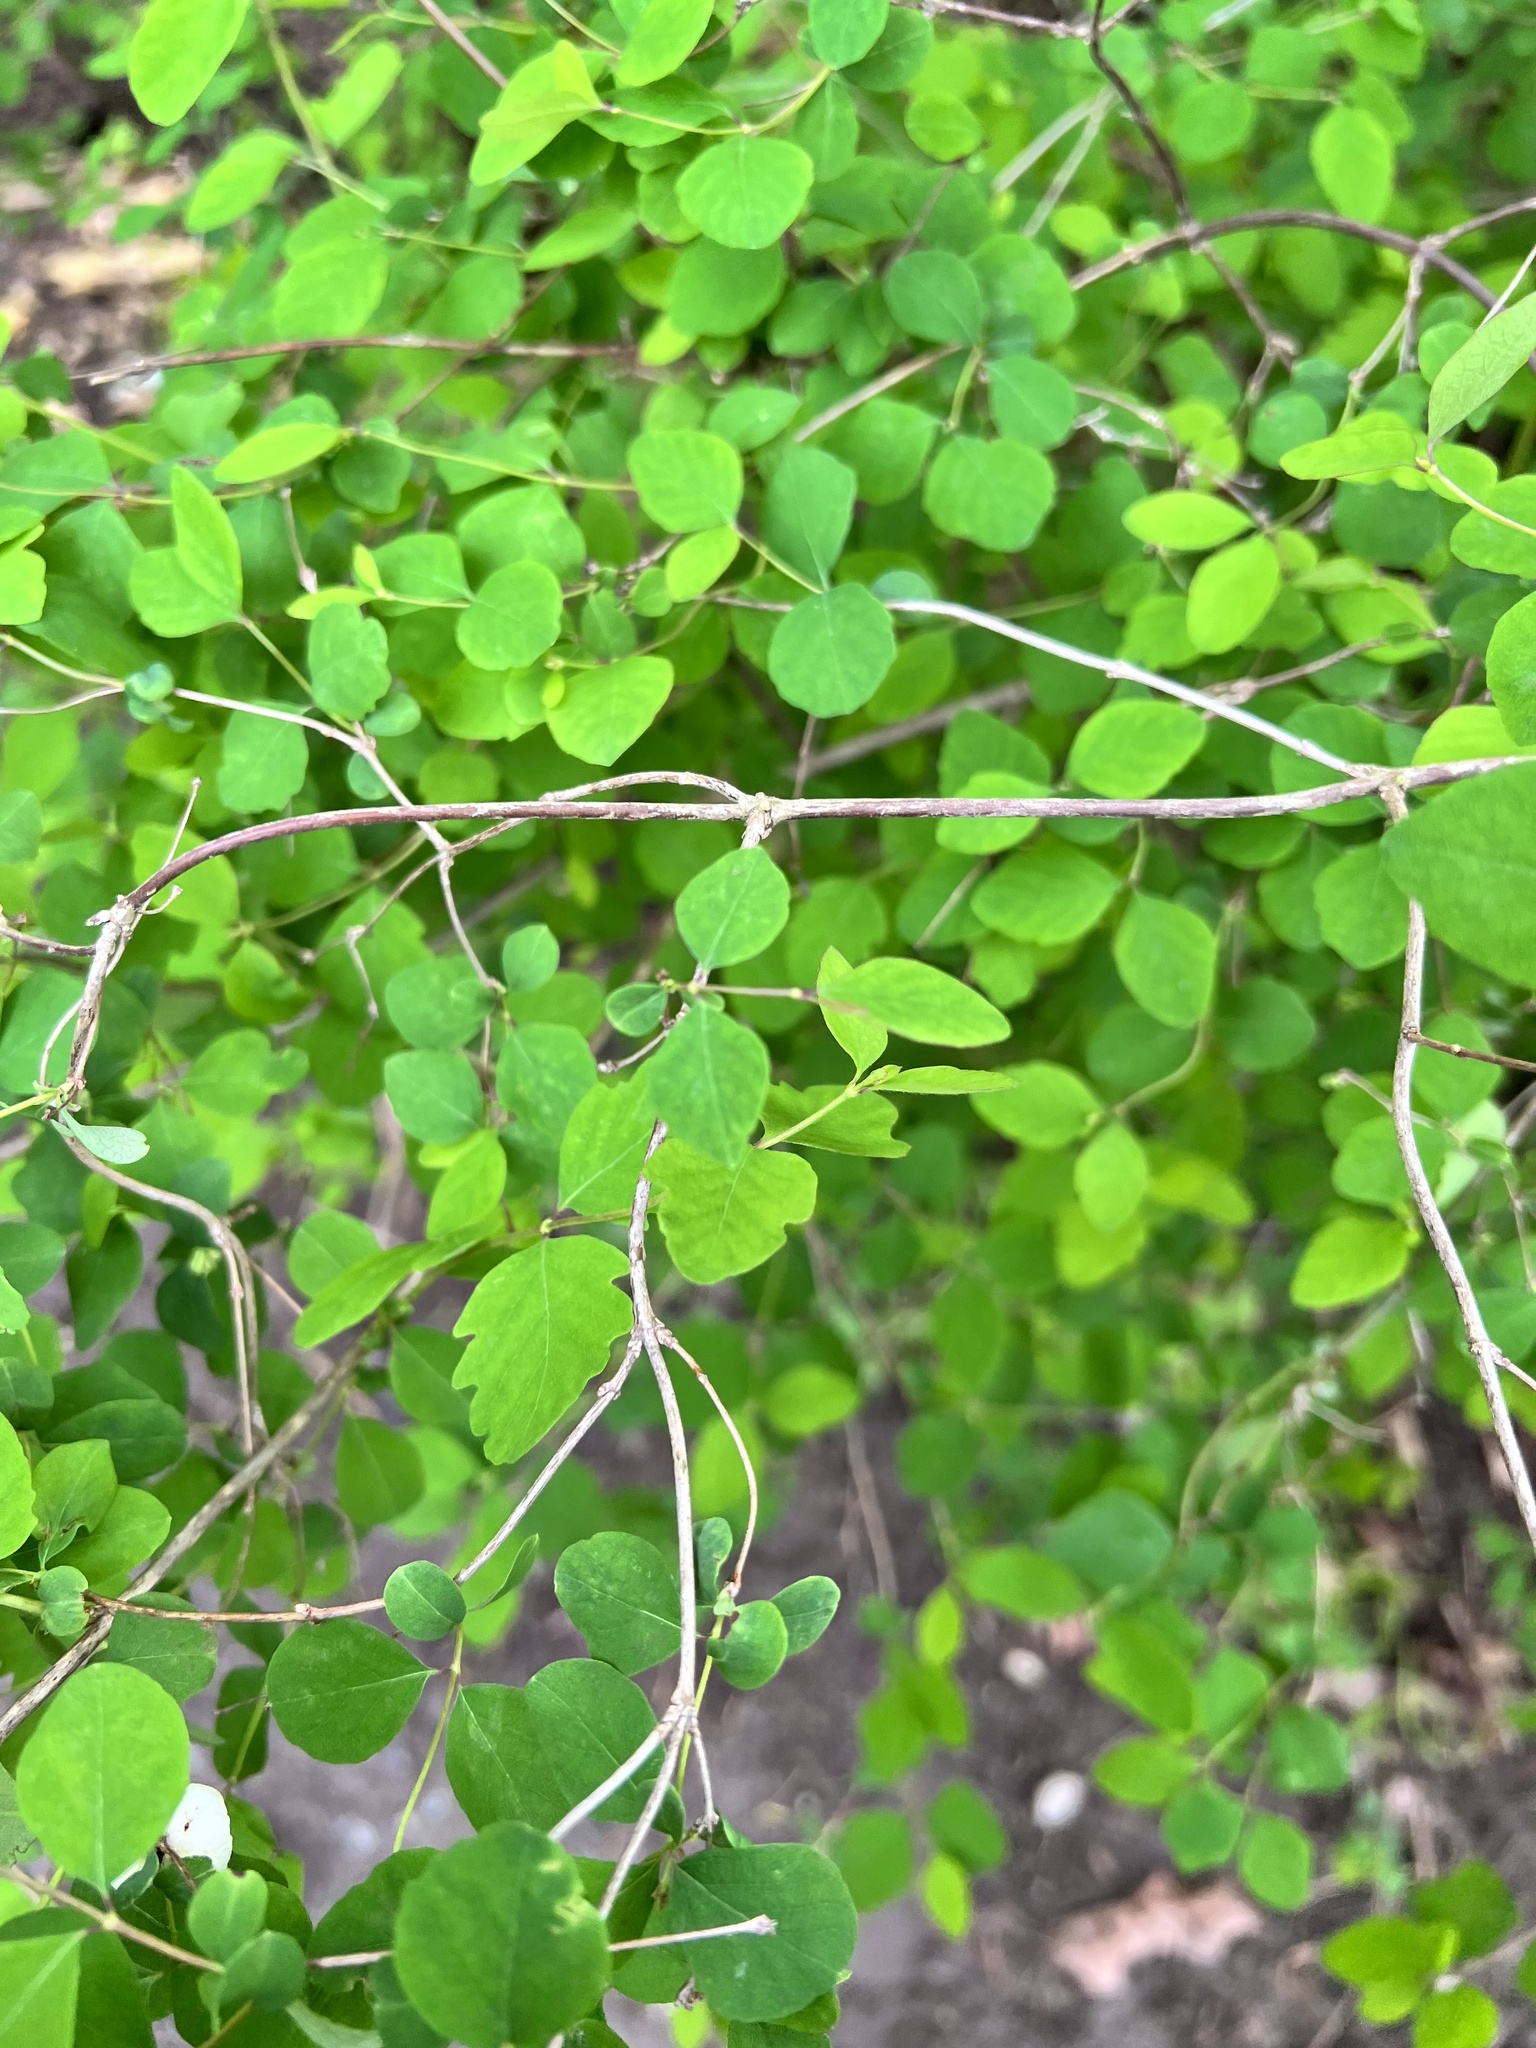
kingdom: Plantae
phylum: Tracheophyta
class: Magnoliopsida
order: Dipsacales
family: Caprifoliaceae
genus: Symphoricarpos
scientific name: Symphoricarpos albus
